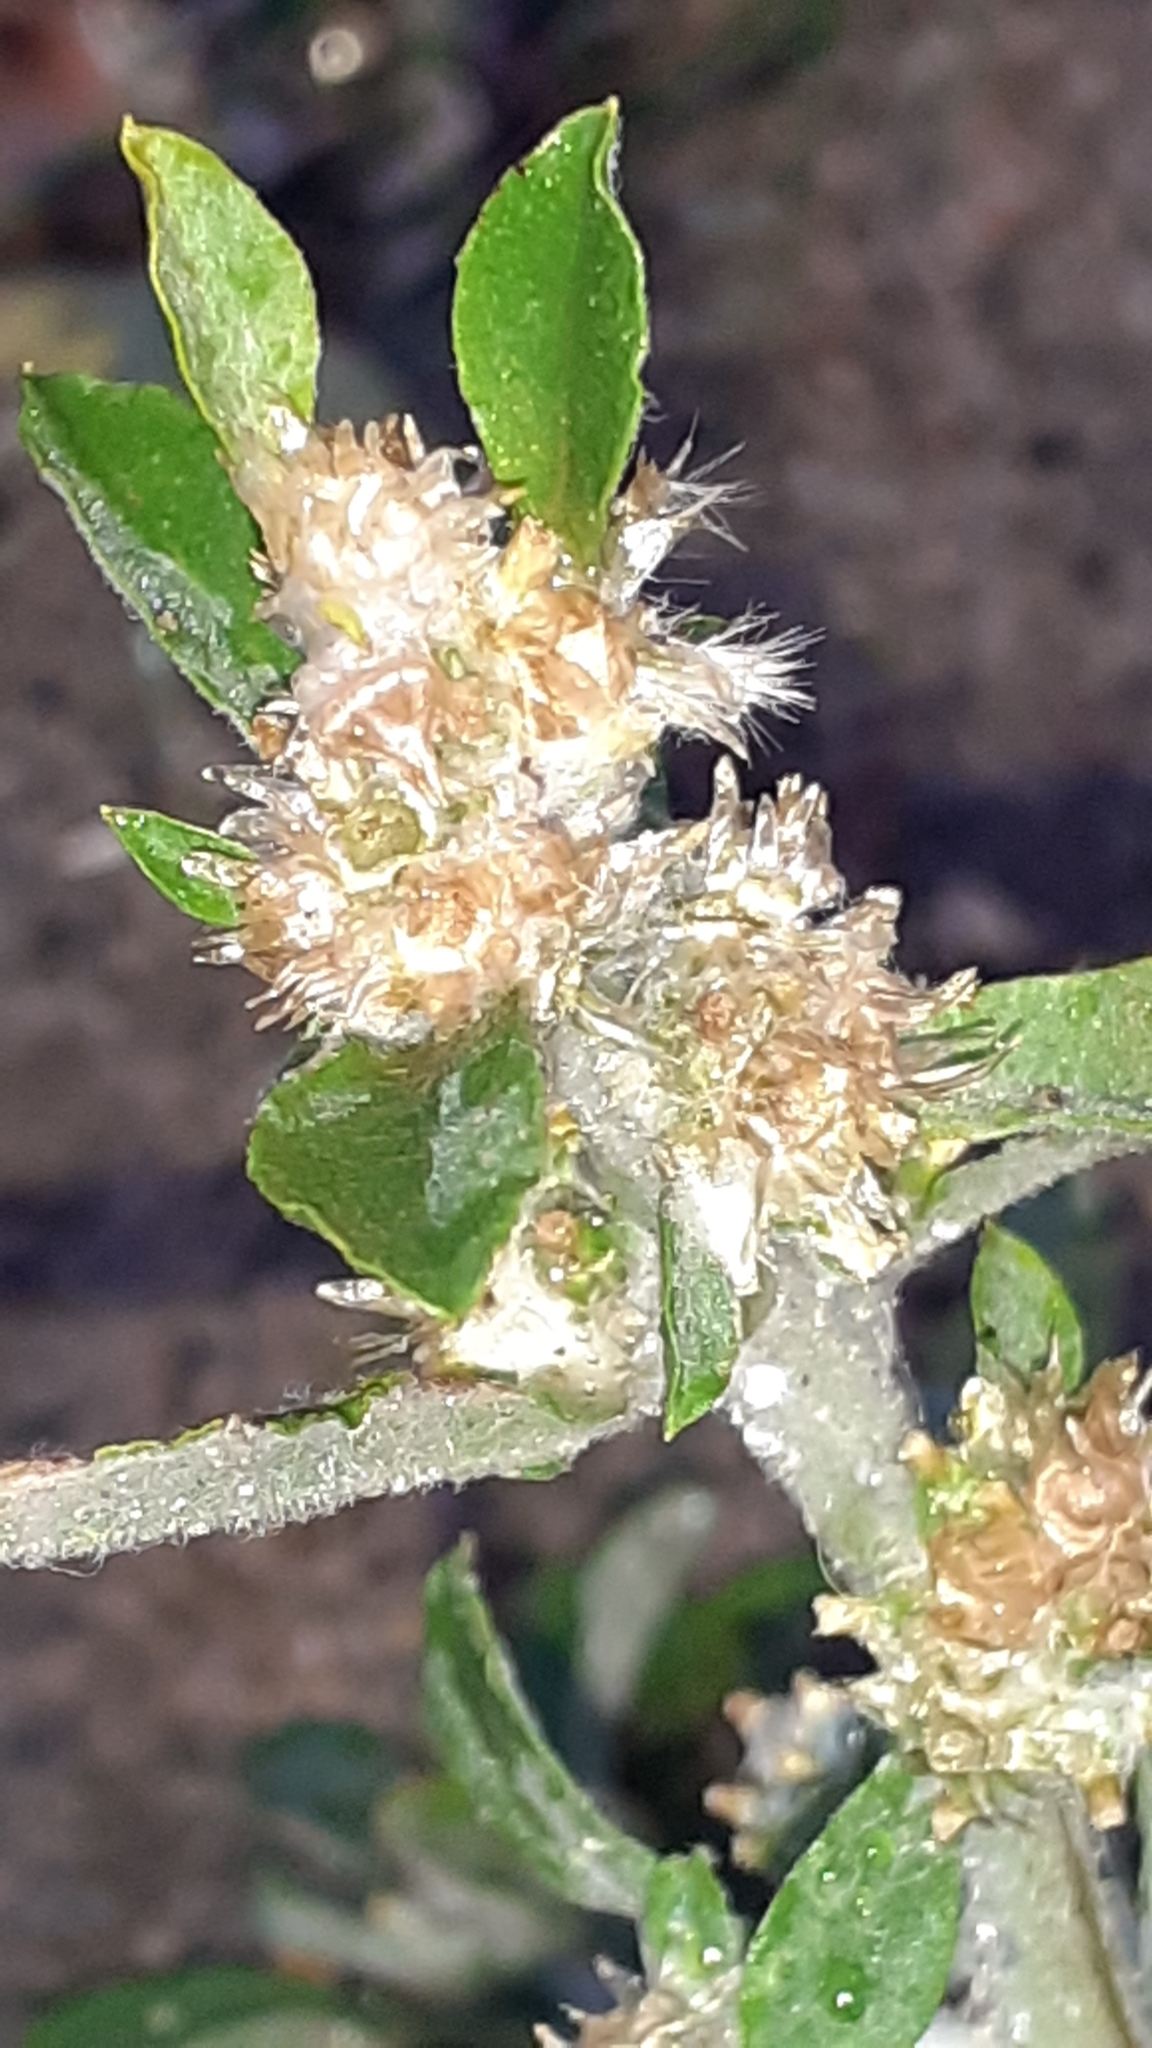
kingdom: Plantae
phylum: Tracheophyta
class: Magnoliopsida
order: Asterales
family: Asteraceae
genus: Gamochaeta
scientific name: Gamochaeta pensylvanica
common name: Pennsylvania everlasting
